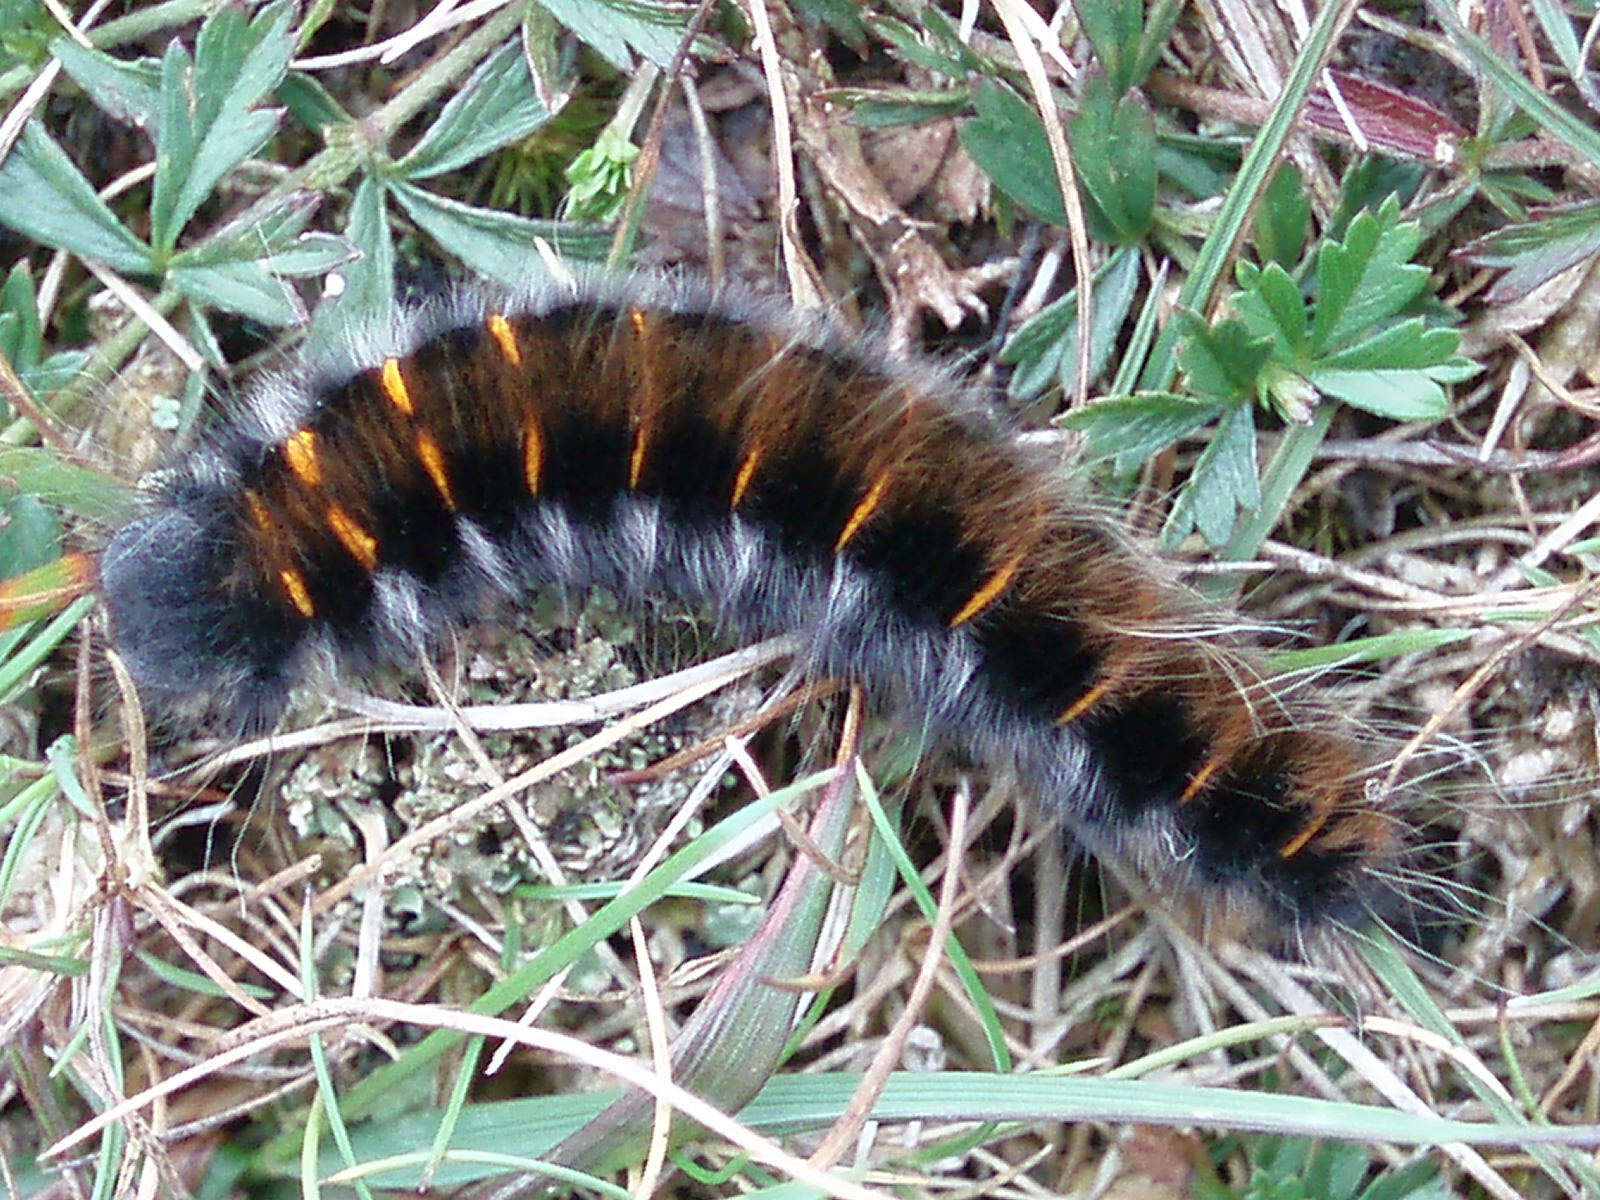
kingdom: Animalia
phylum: Arthropoda
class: Insecta
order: Lepidoptera
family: Lasiocampidae
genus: Macrothylacia
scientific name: Macrothylacia rubi
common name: Fox moth
